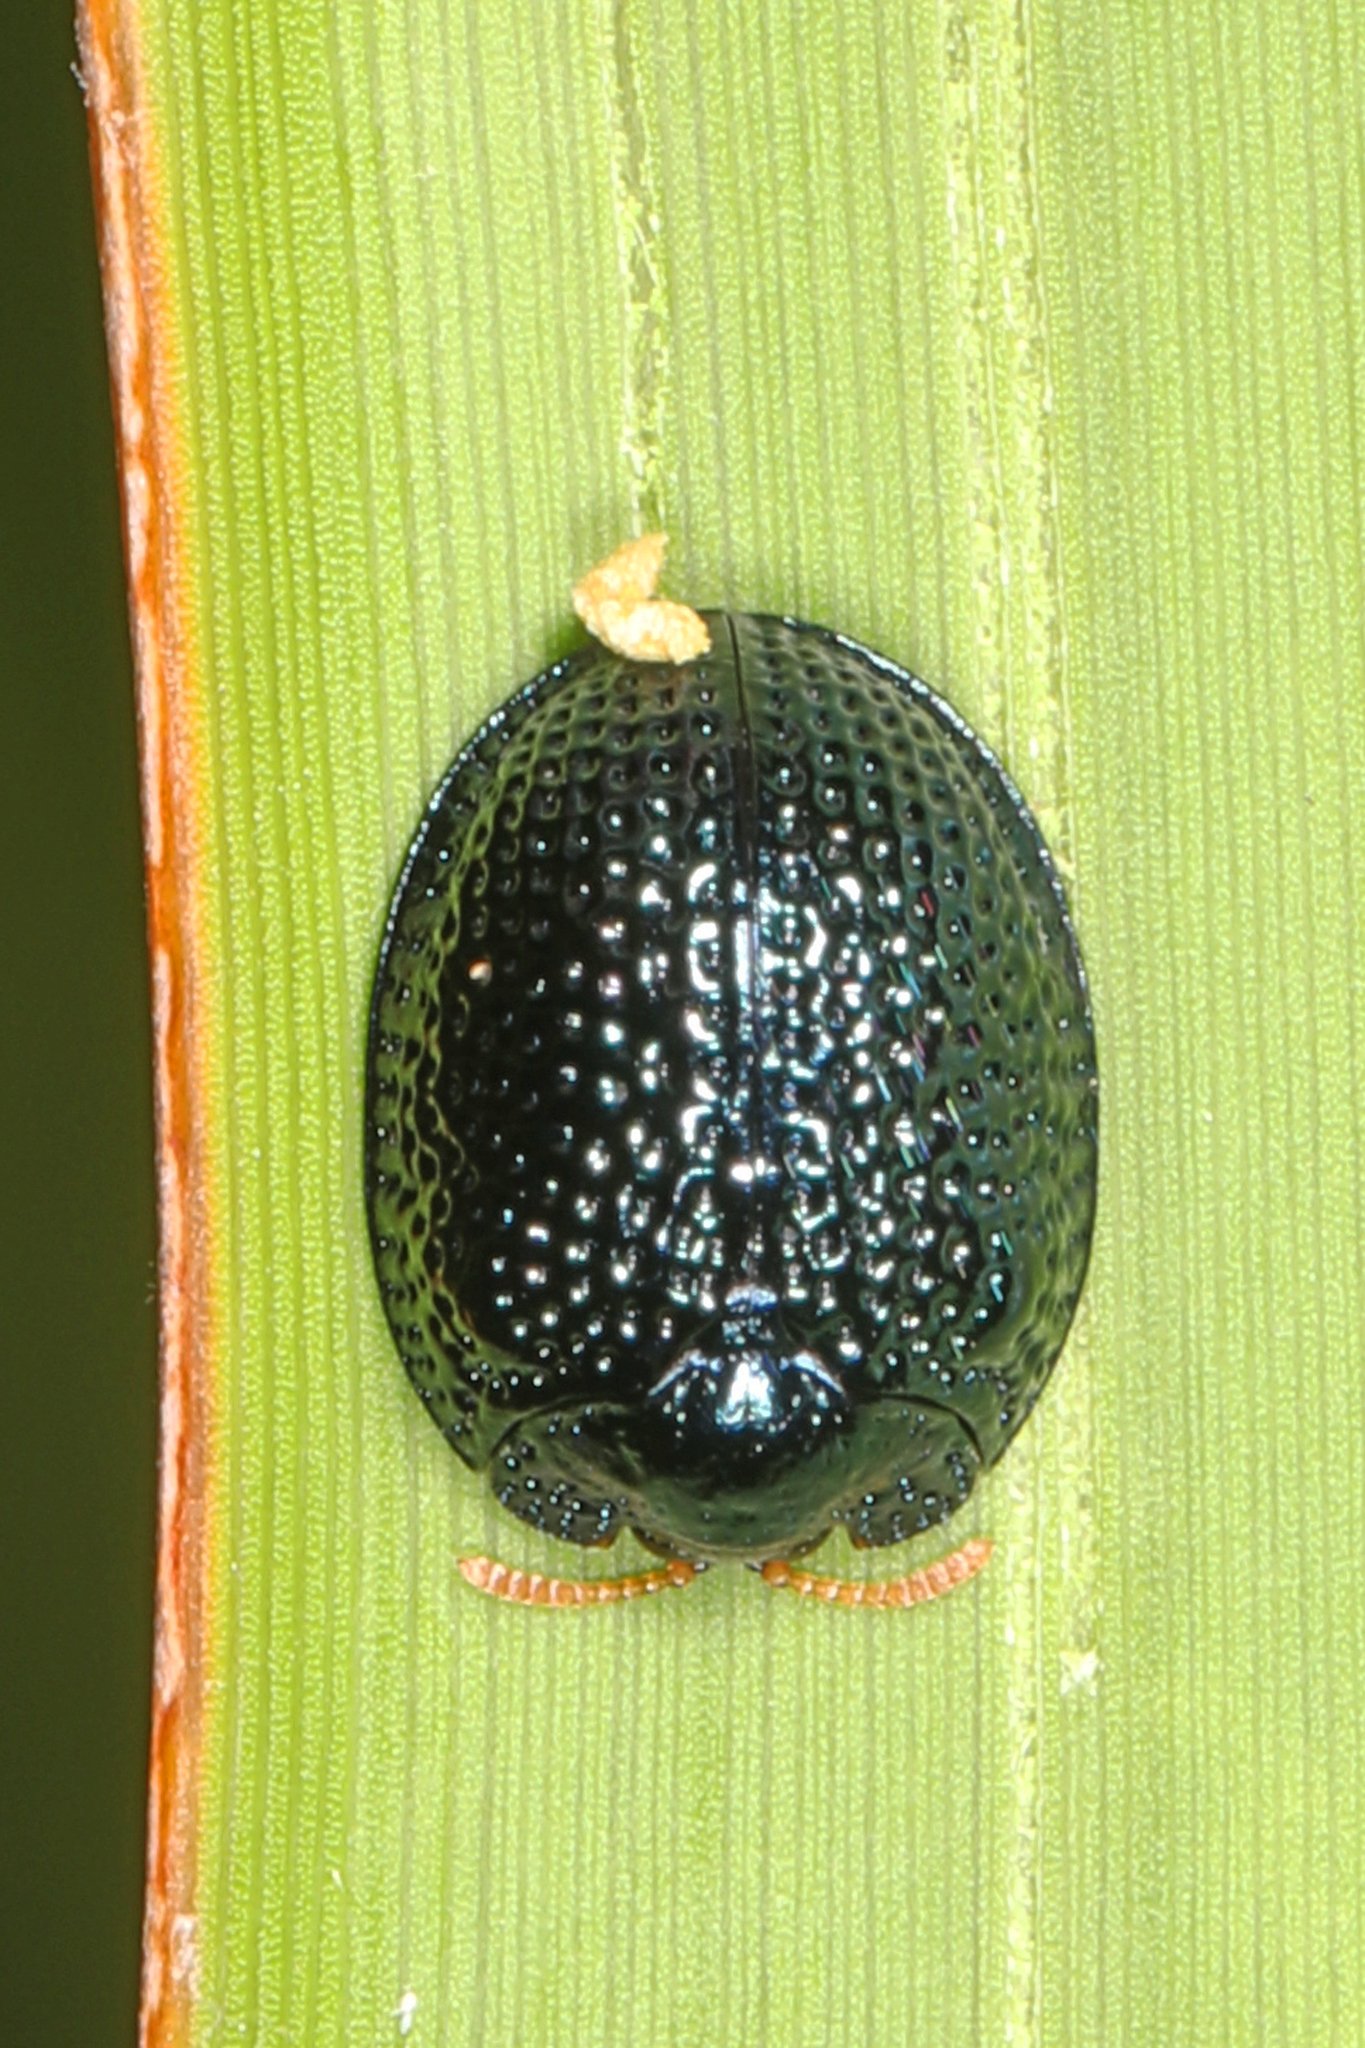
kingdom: Animalia
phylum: Arthropoda
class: Insecta
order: Coleoptera
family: Chrysomelidae
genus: Hemisphaerota
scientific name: Hemisphaerota cyanea
